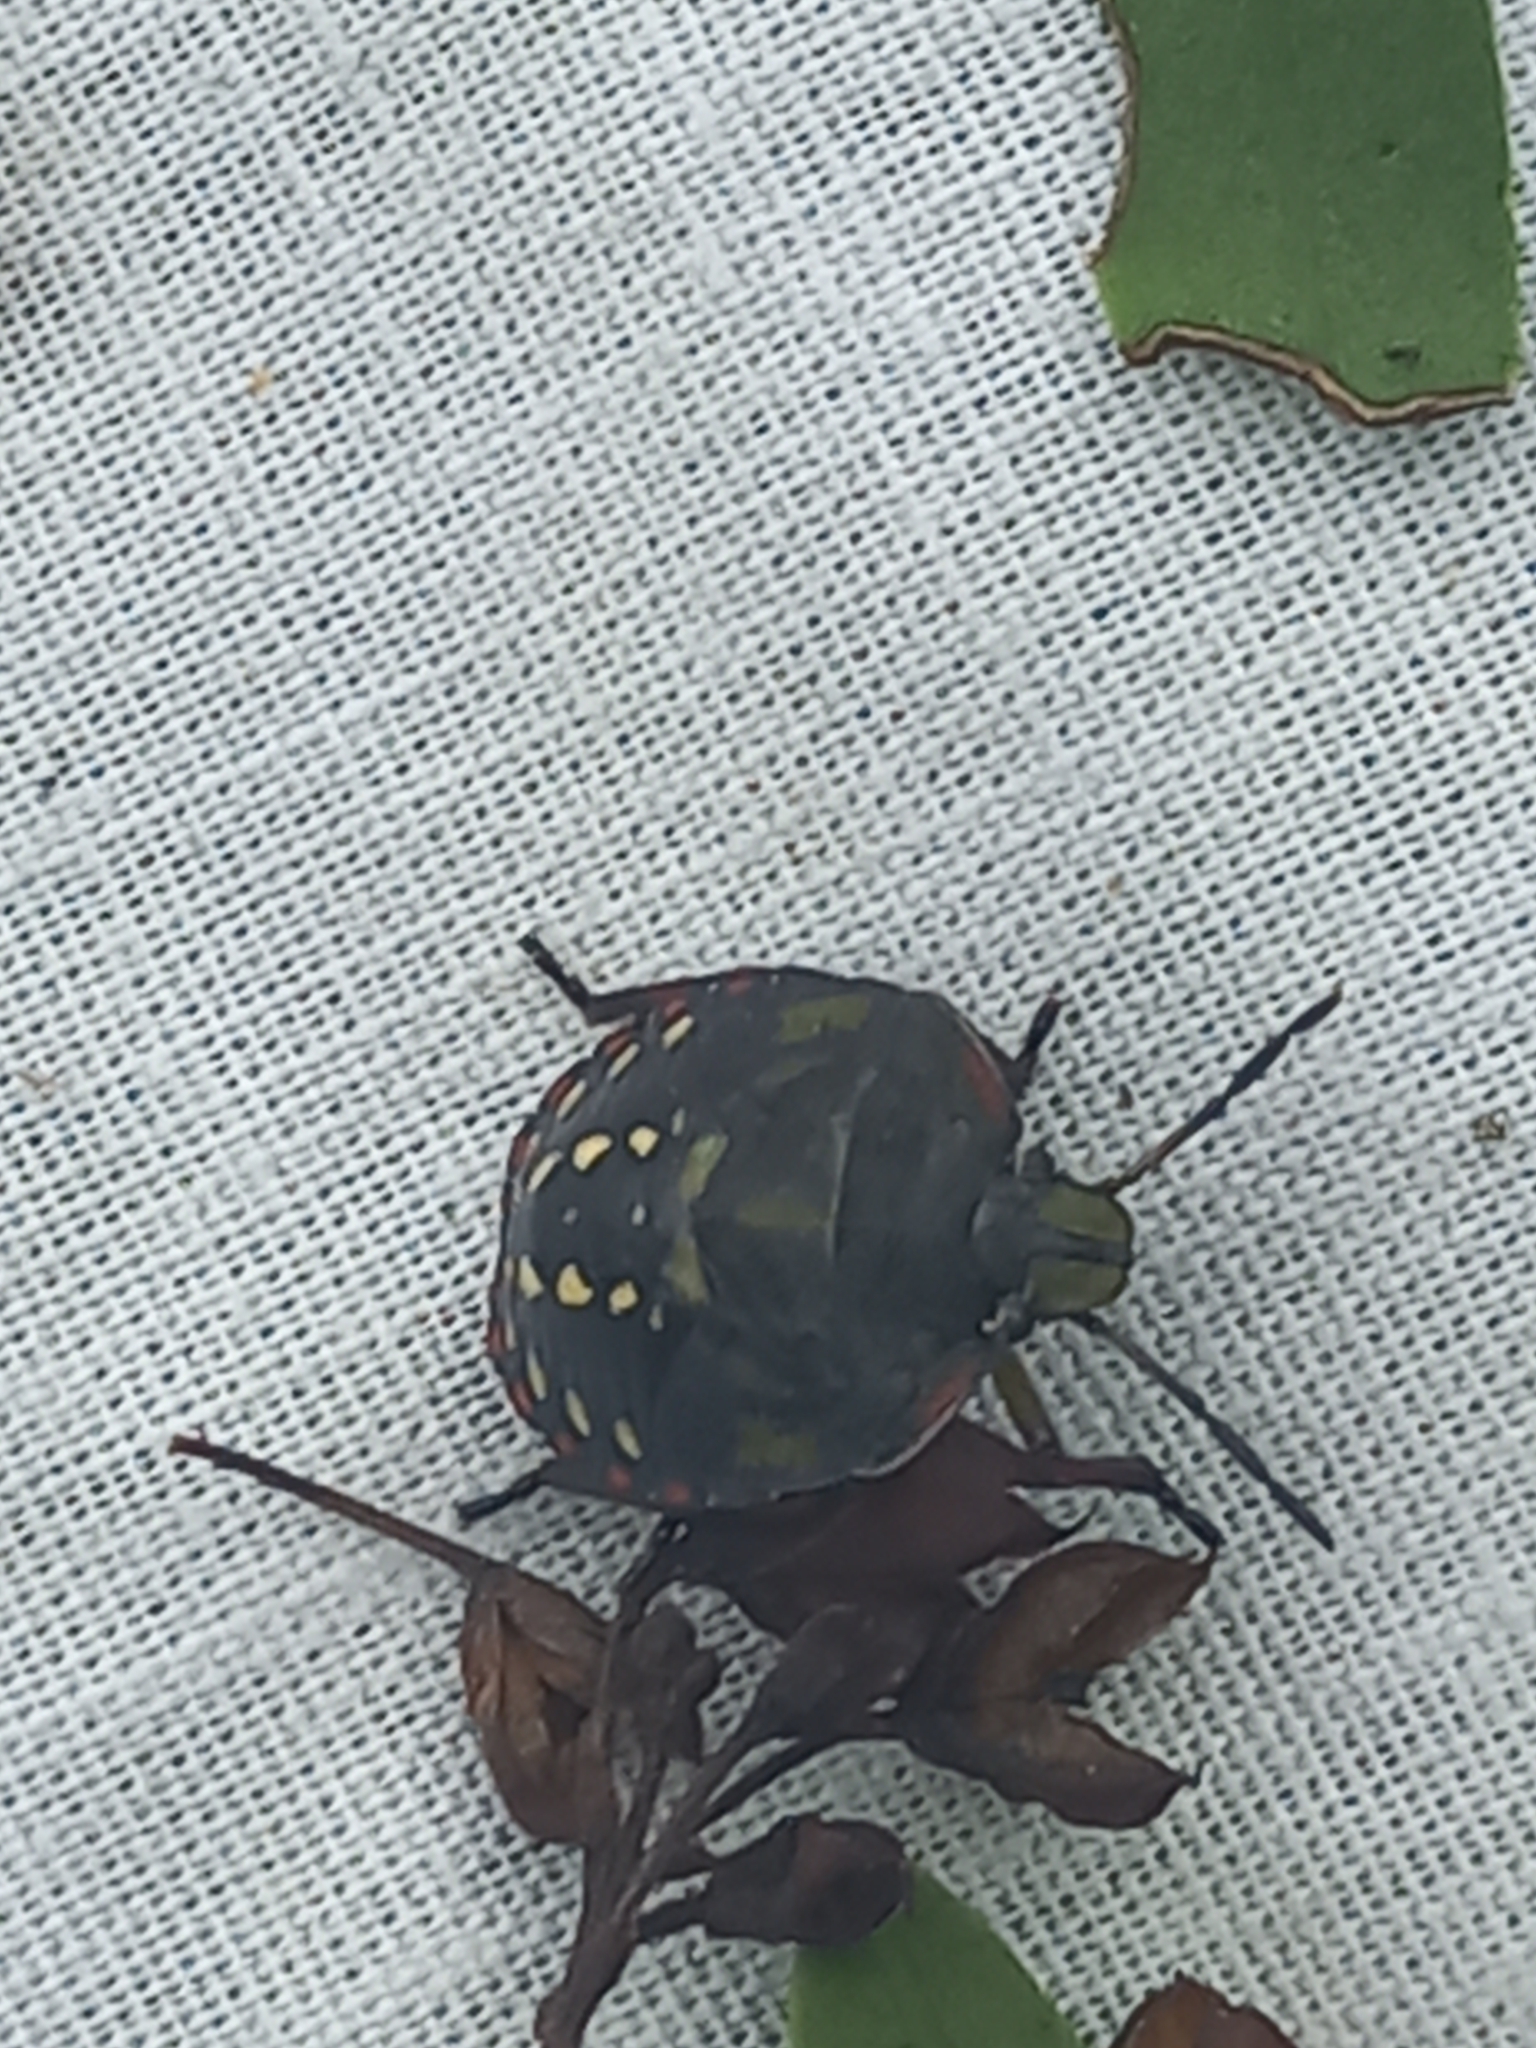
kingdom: Animalia
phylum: Arthropoda
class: Insecta
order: Hemiptera
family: Pentatomidae
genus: Nezara
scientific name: Nezara viridula
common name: Southern green stink bug
